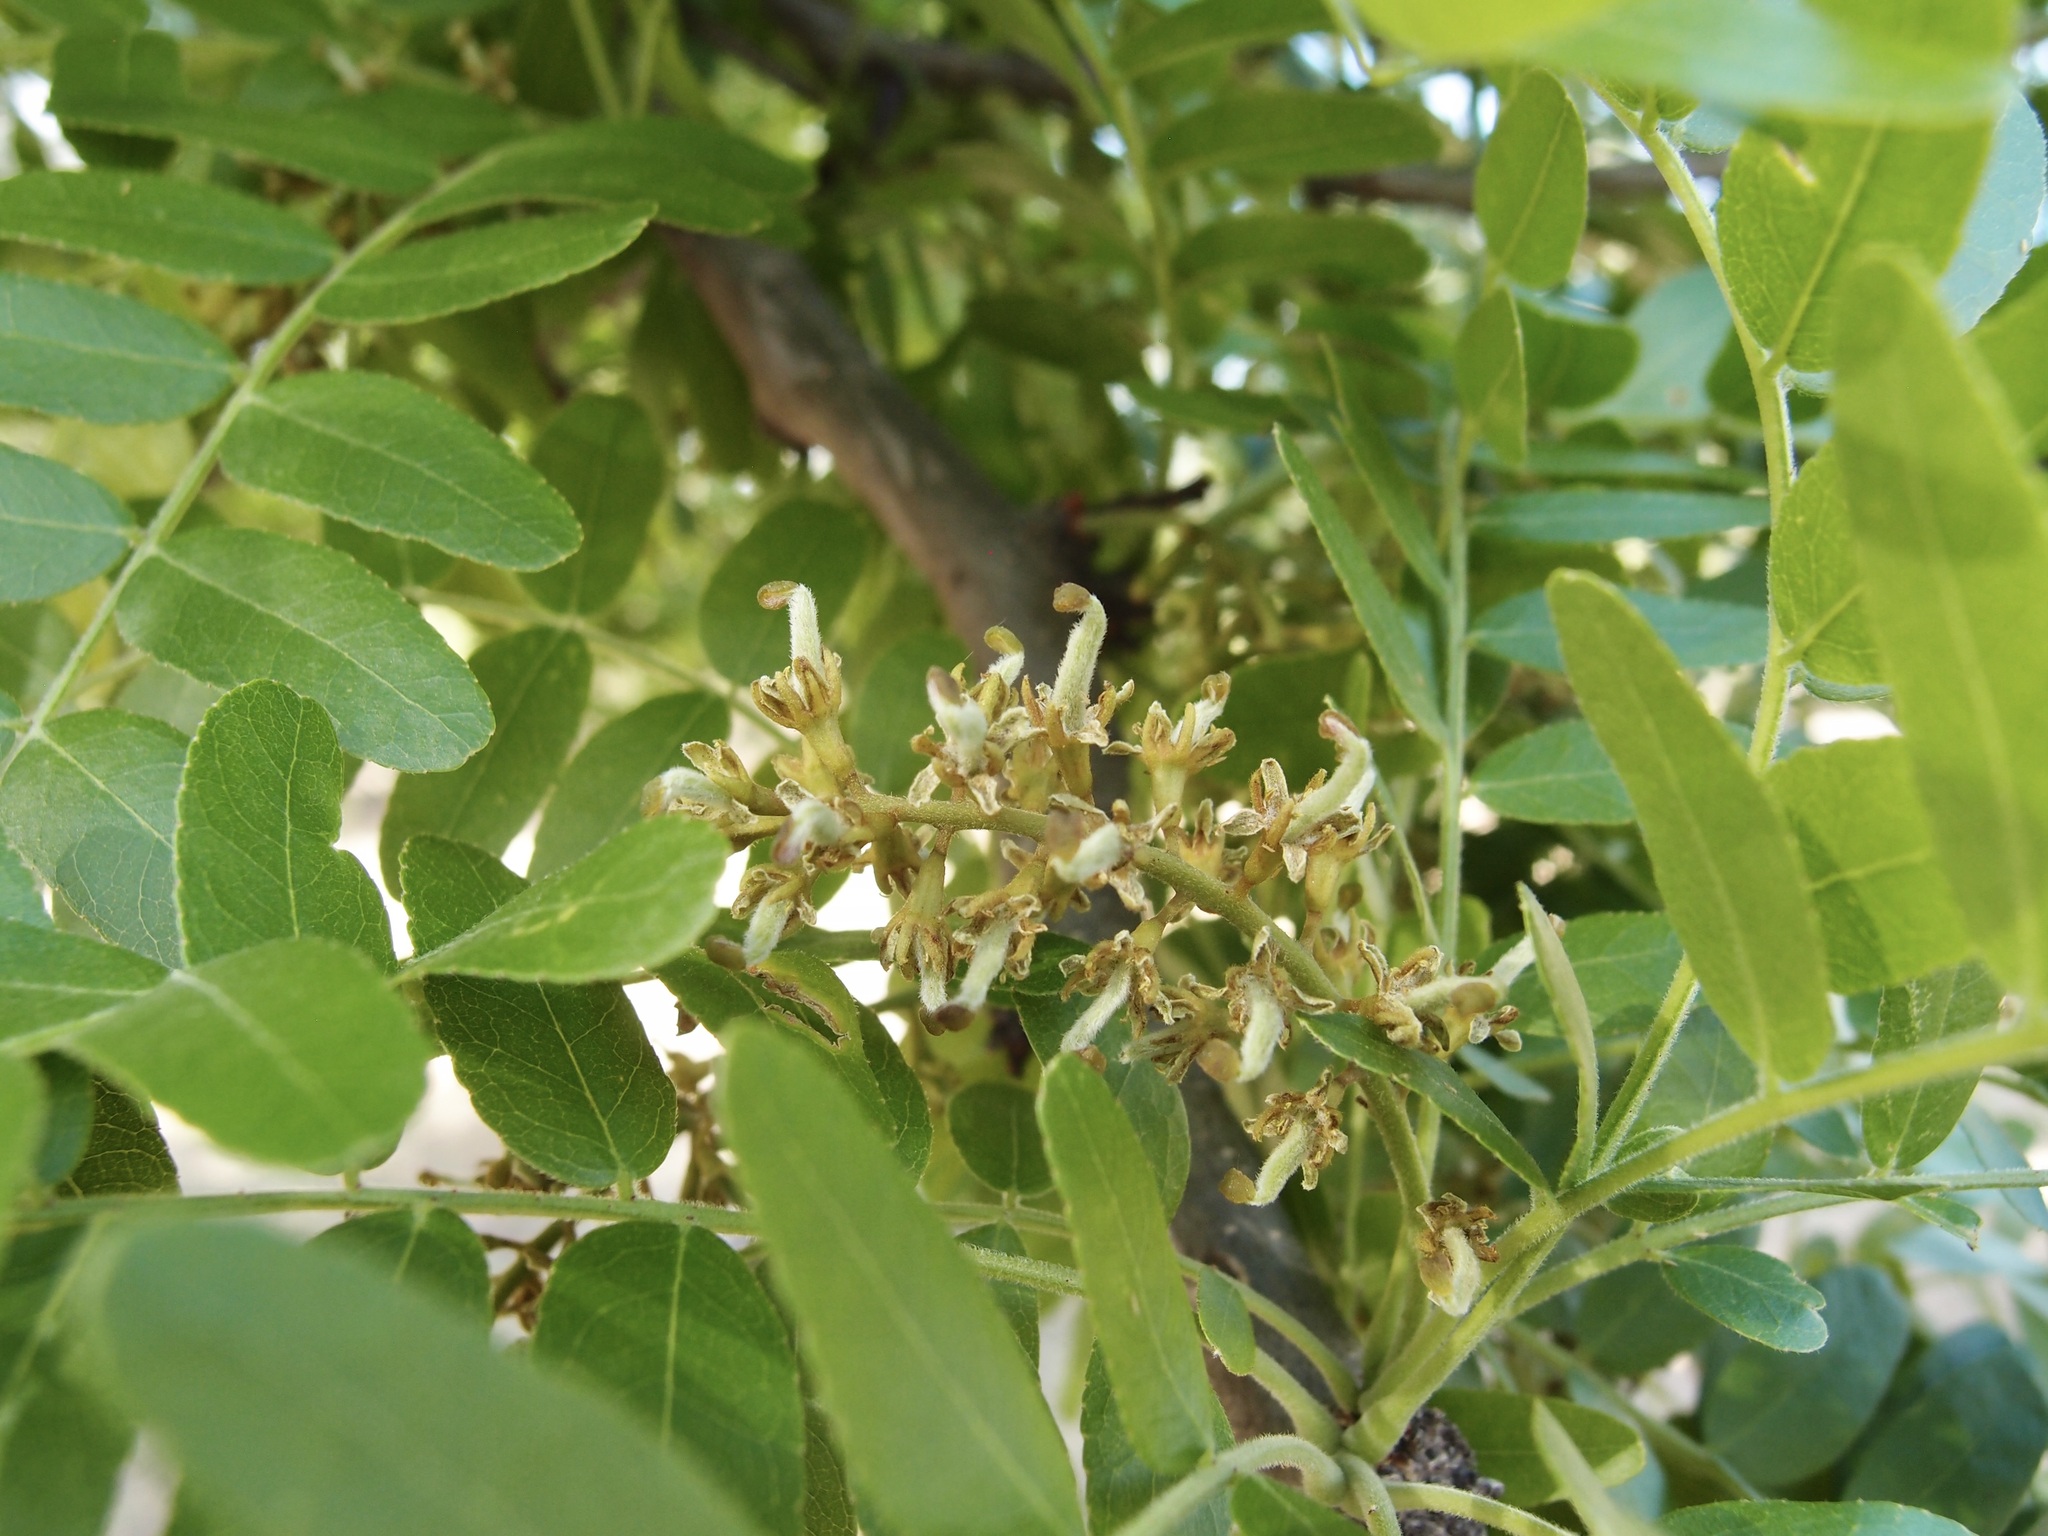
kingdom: Plantae
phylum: Tracheophyta
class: Magnoliopsida
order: Fabales
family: Fabaceae
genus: Gleditsia
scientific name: Gleditsia triacanthos
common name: Common honeylocust
